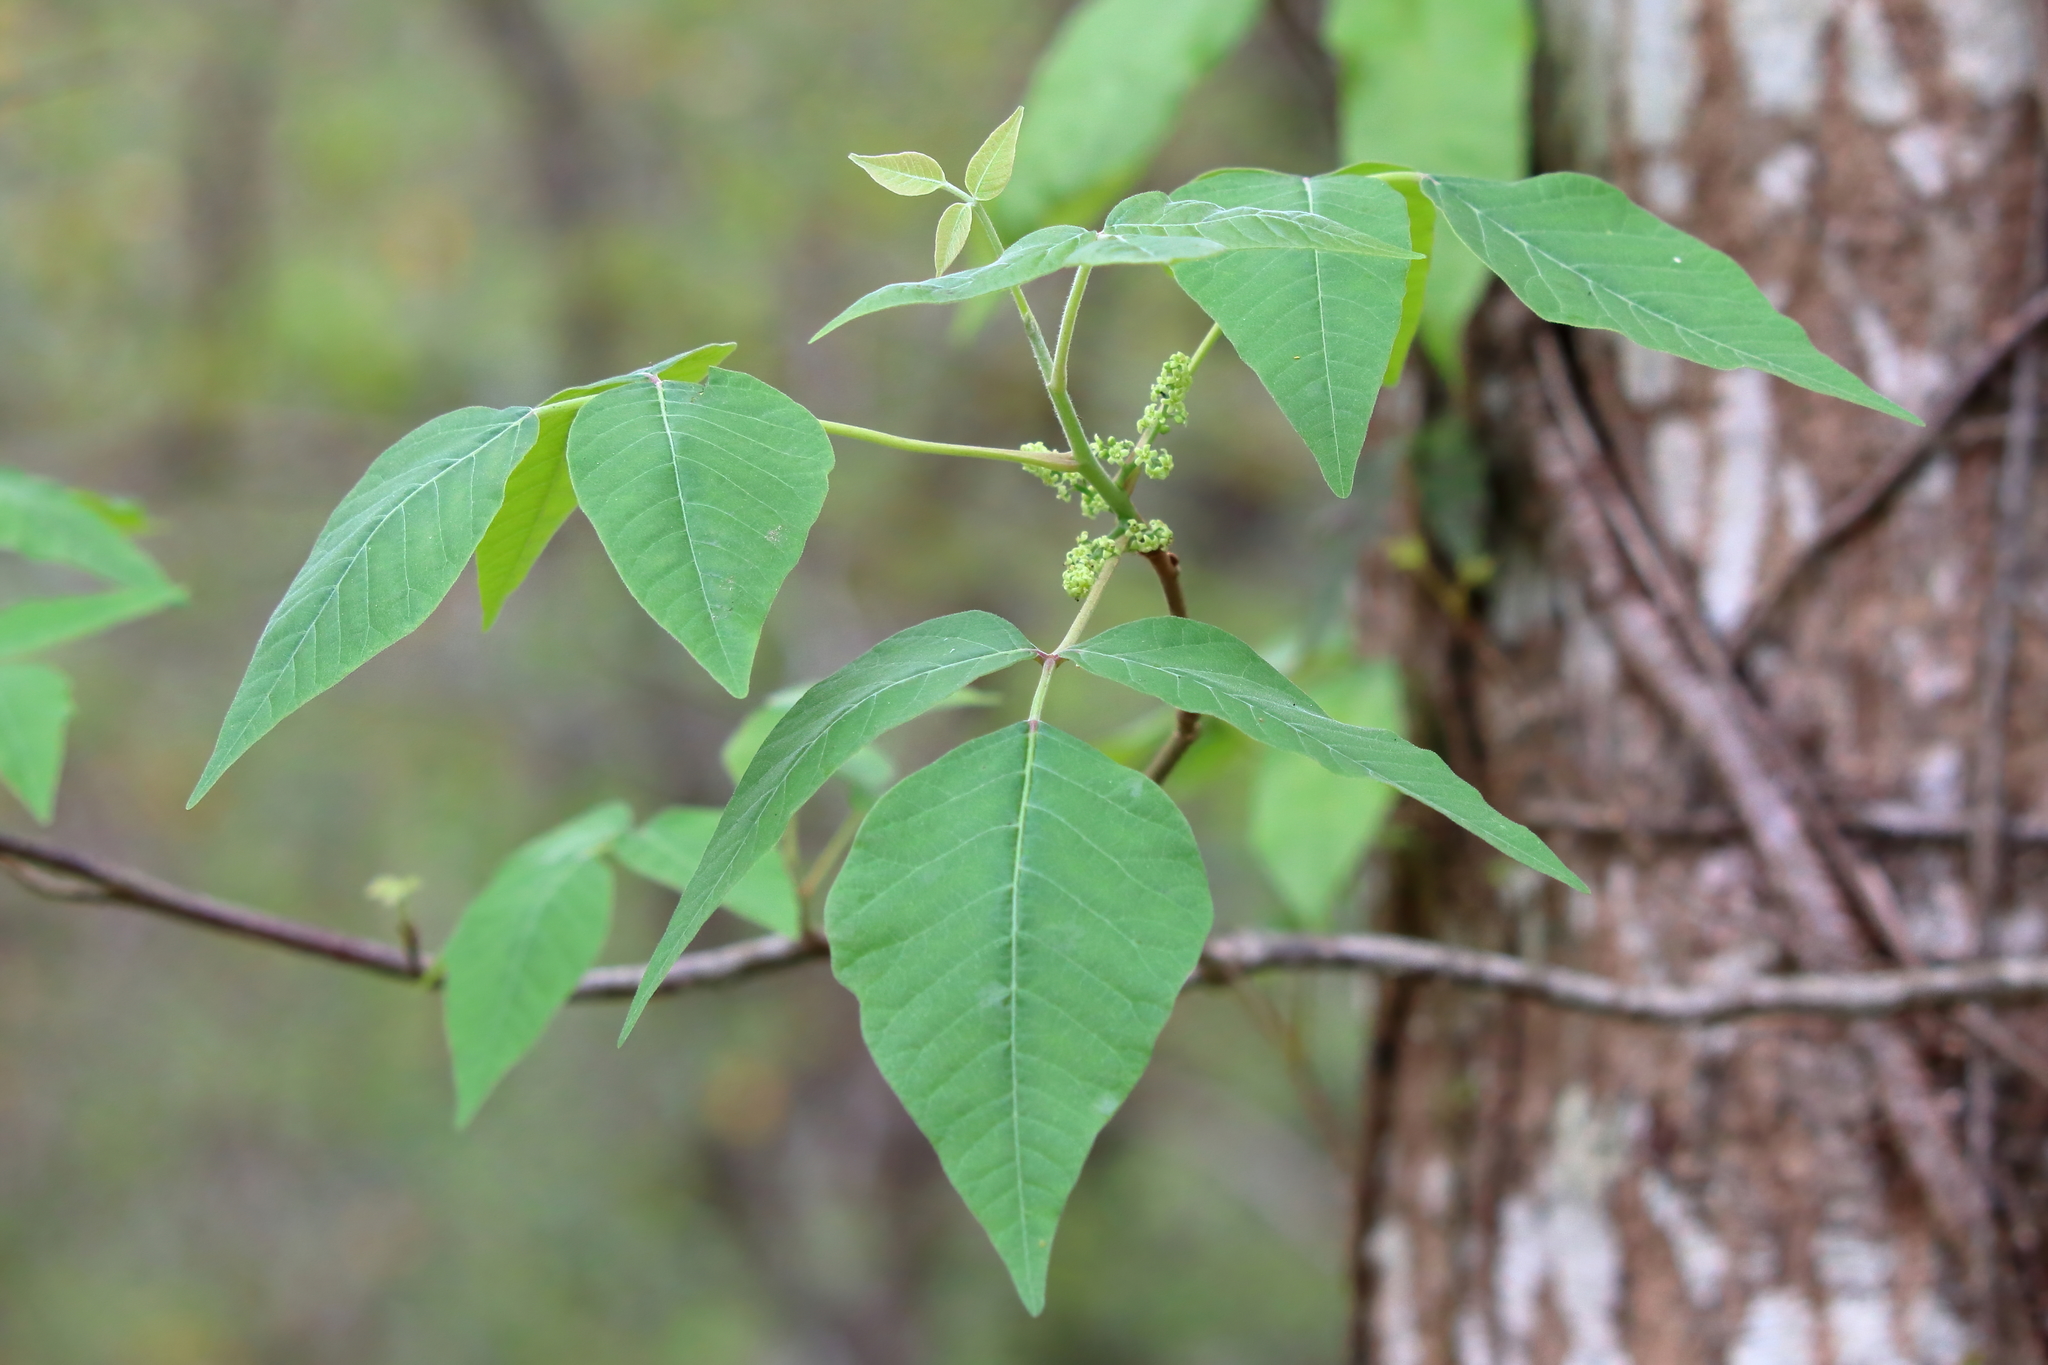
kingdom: Plantae
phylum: Tracheophyta
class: Magnoliopsida
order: Sapindales
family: Anacardiaceae
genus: Toxicodendron
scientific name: Toxicodendron radicans
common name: Poison ivy
